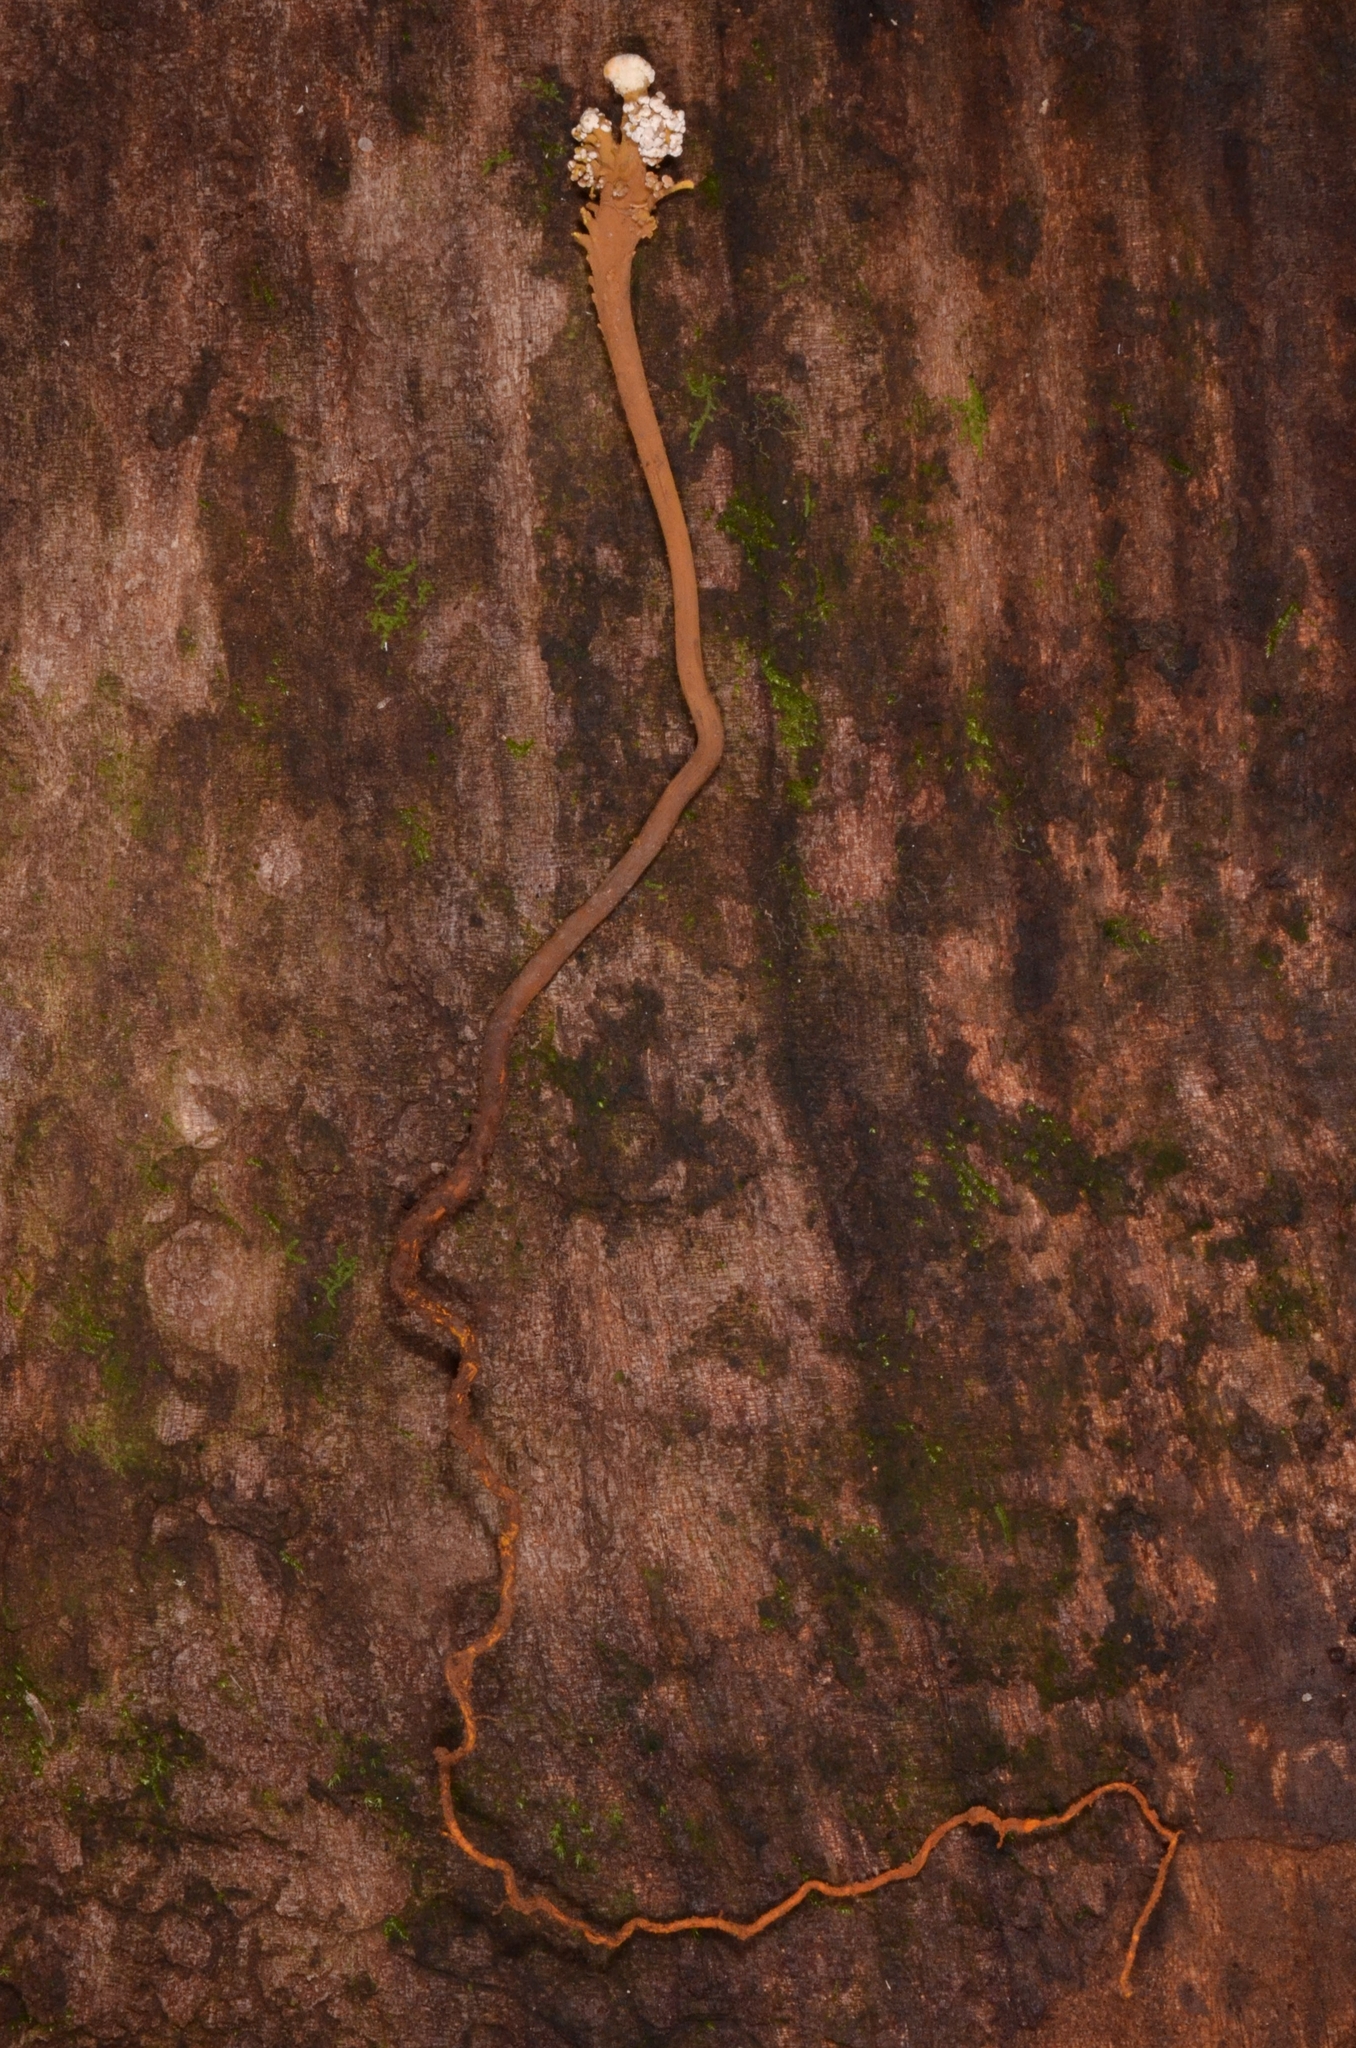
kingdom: Fungi
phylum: Ascomycota
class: Eurotiomycetes
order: Eurotiales
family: Aspergillaceae
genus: Dendrosphaera
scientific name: Dendrosphaera eberhardtii
